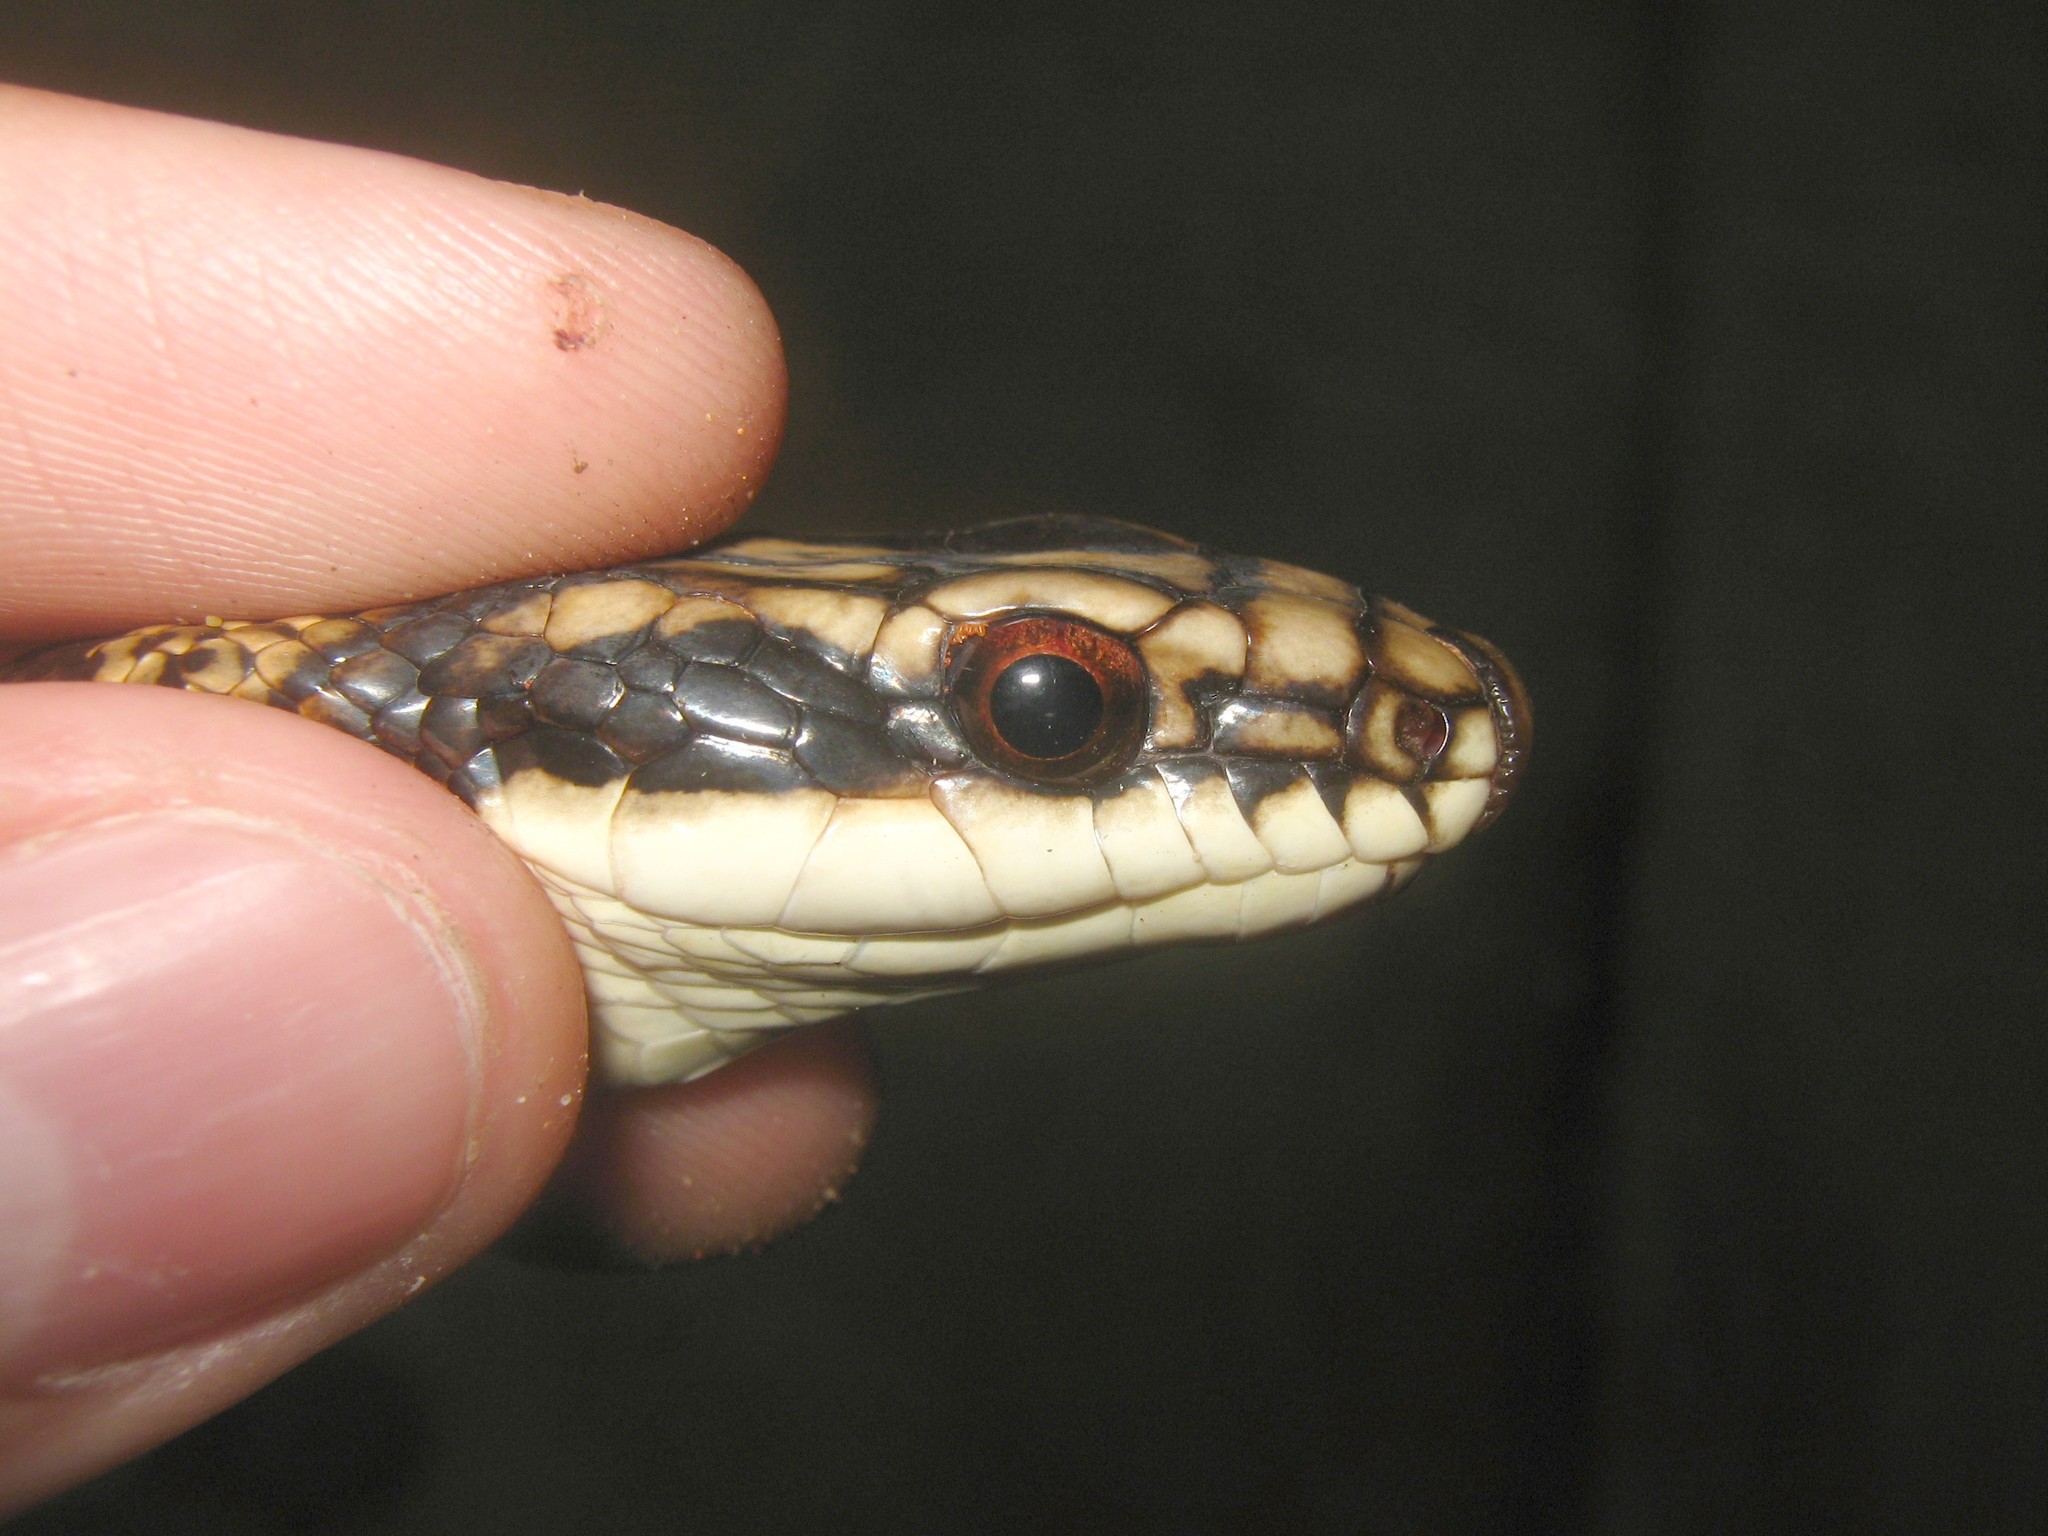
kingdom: Animalia
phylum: Chordata
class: Squamata
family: Colubridae
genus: Salvadora
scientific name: Salvadora mexicana
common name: Mexican patchnose snake
